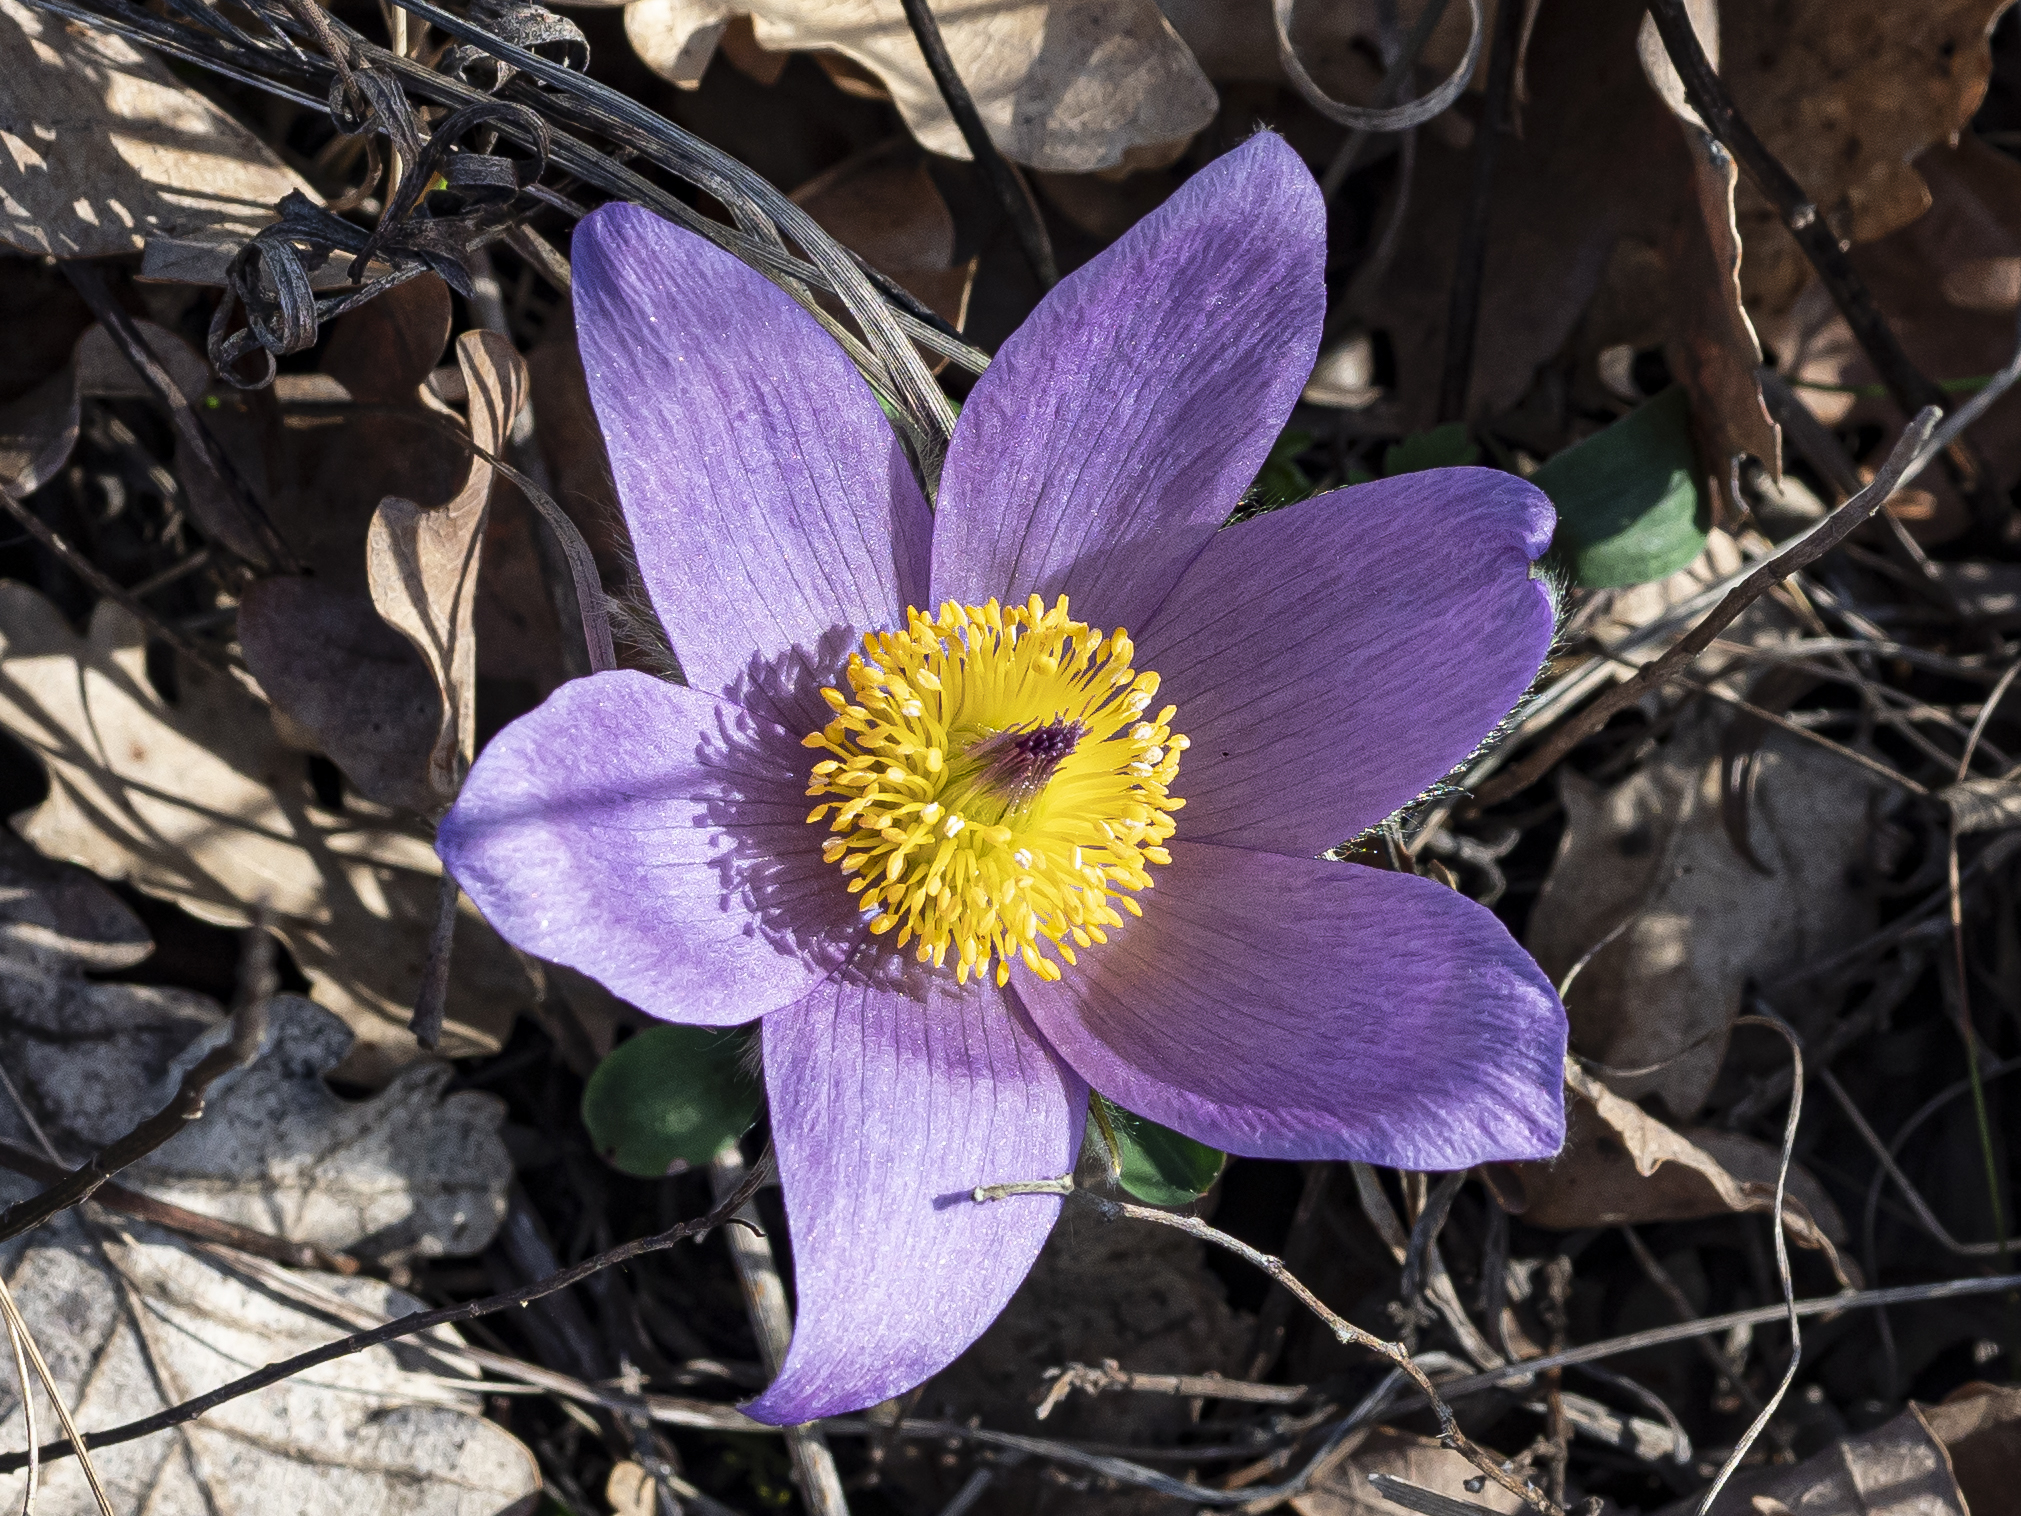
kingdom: Plantae
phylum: Tracheophyta
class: Magnoliopsida
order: Ranunculales
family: Ranunculaceae
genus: Pulsatilla
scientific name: Pulsatilla grandis
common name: Greater pasque flower
